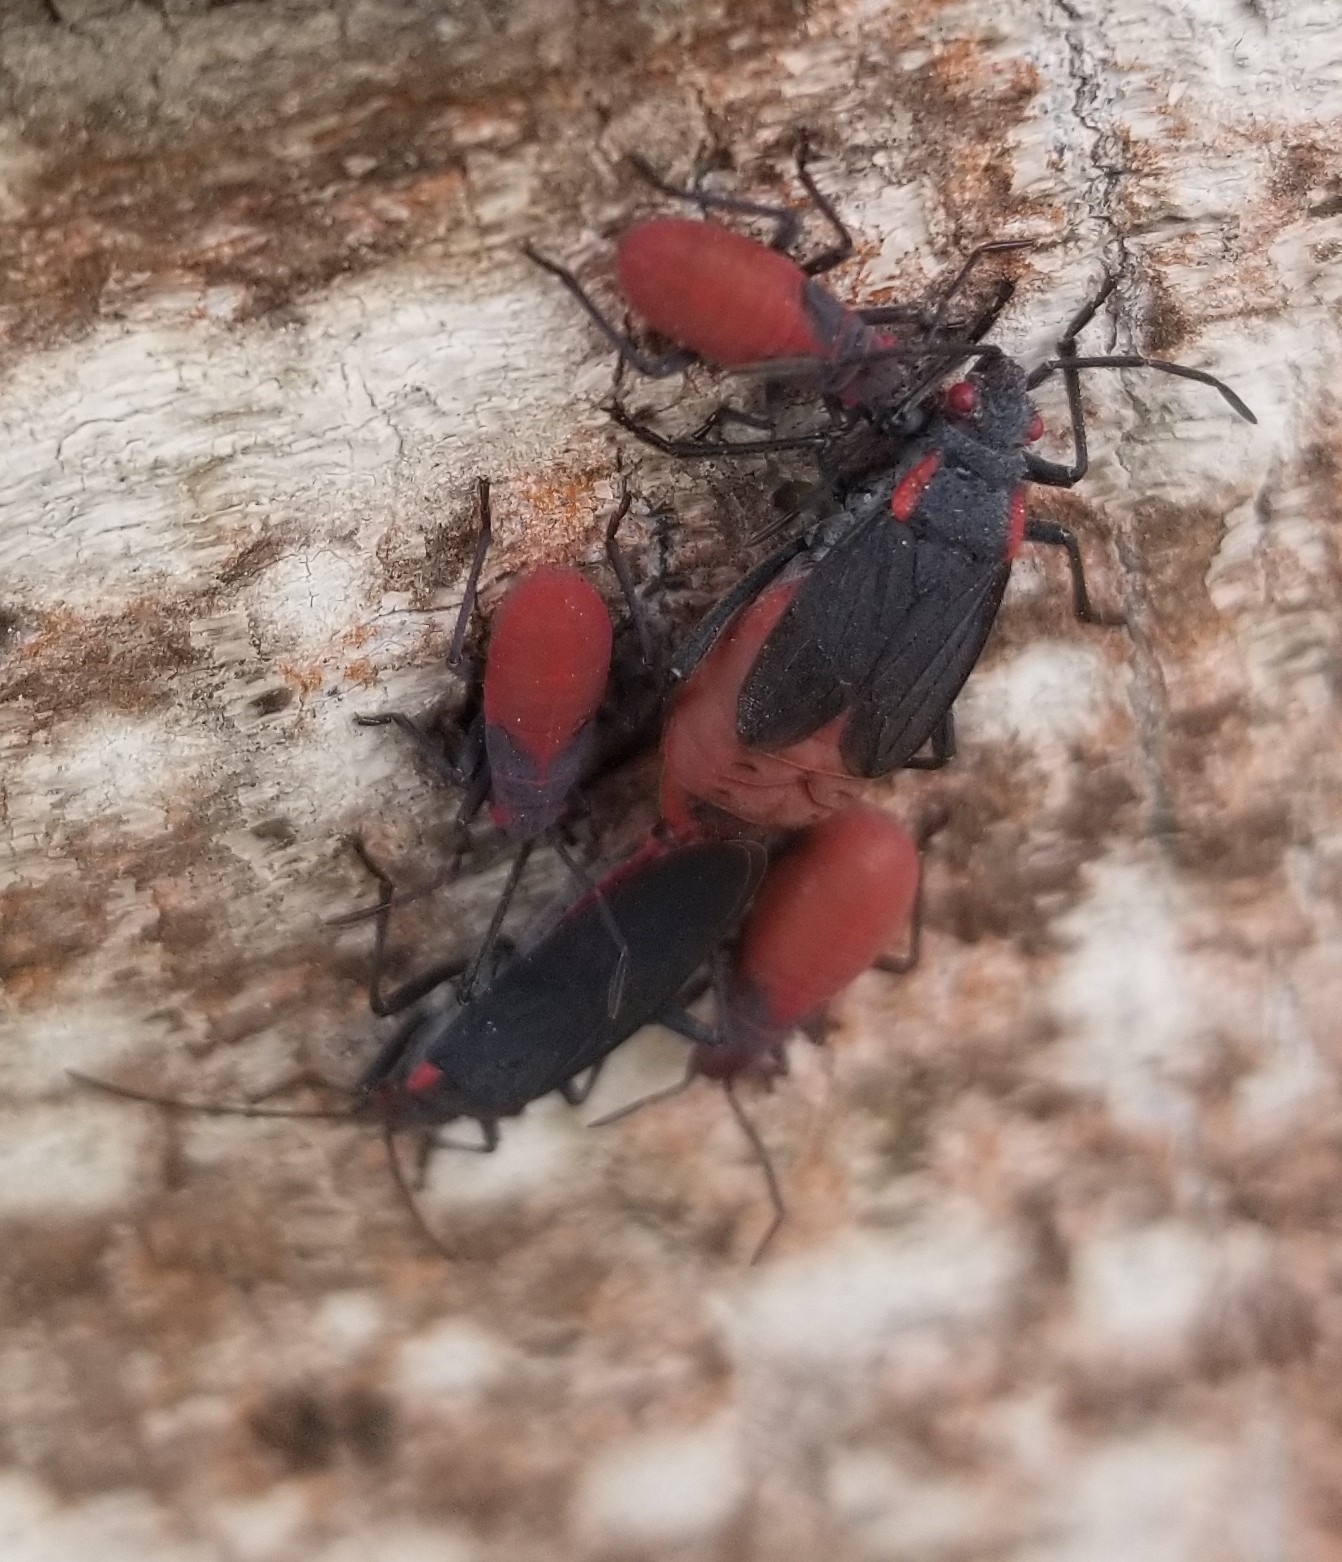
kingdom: Animalia
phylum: Arthropoda
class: Insecta
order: Hemiptera
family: Rhopalidae
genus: Jadera
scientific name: Jadera haematoloma
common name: Red-shouldered bug
